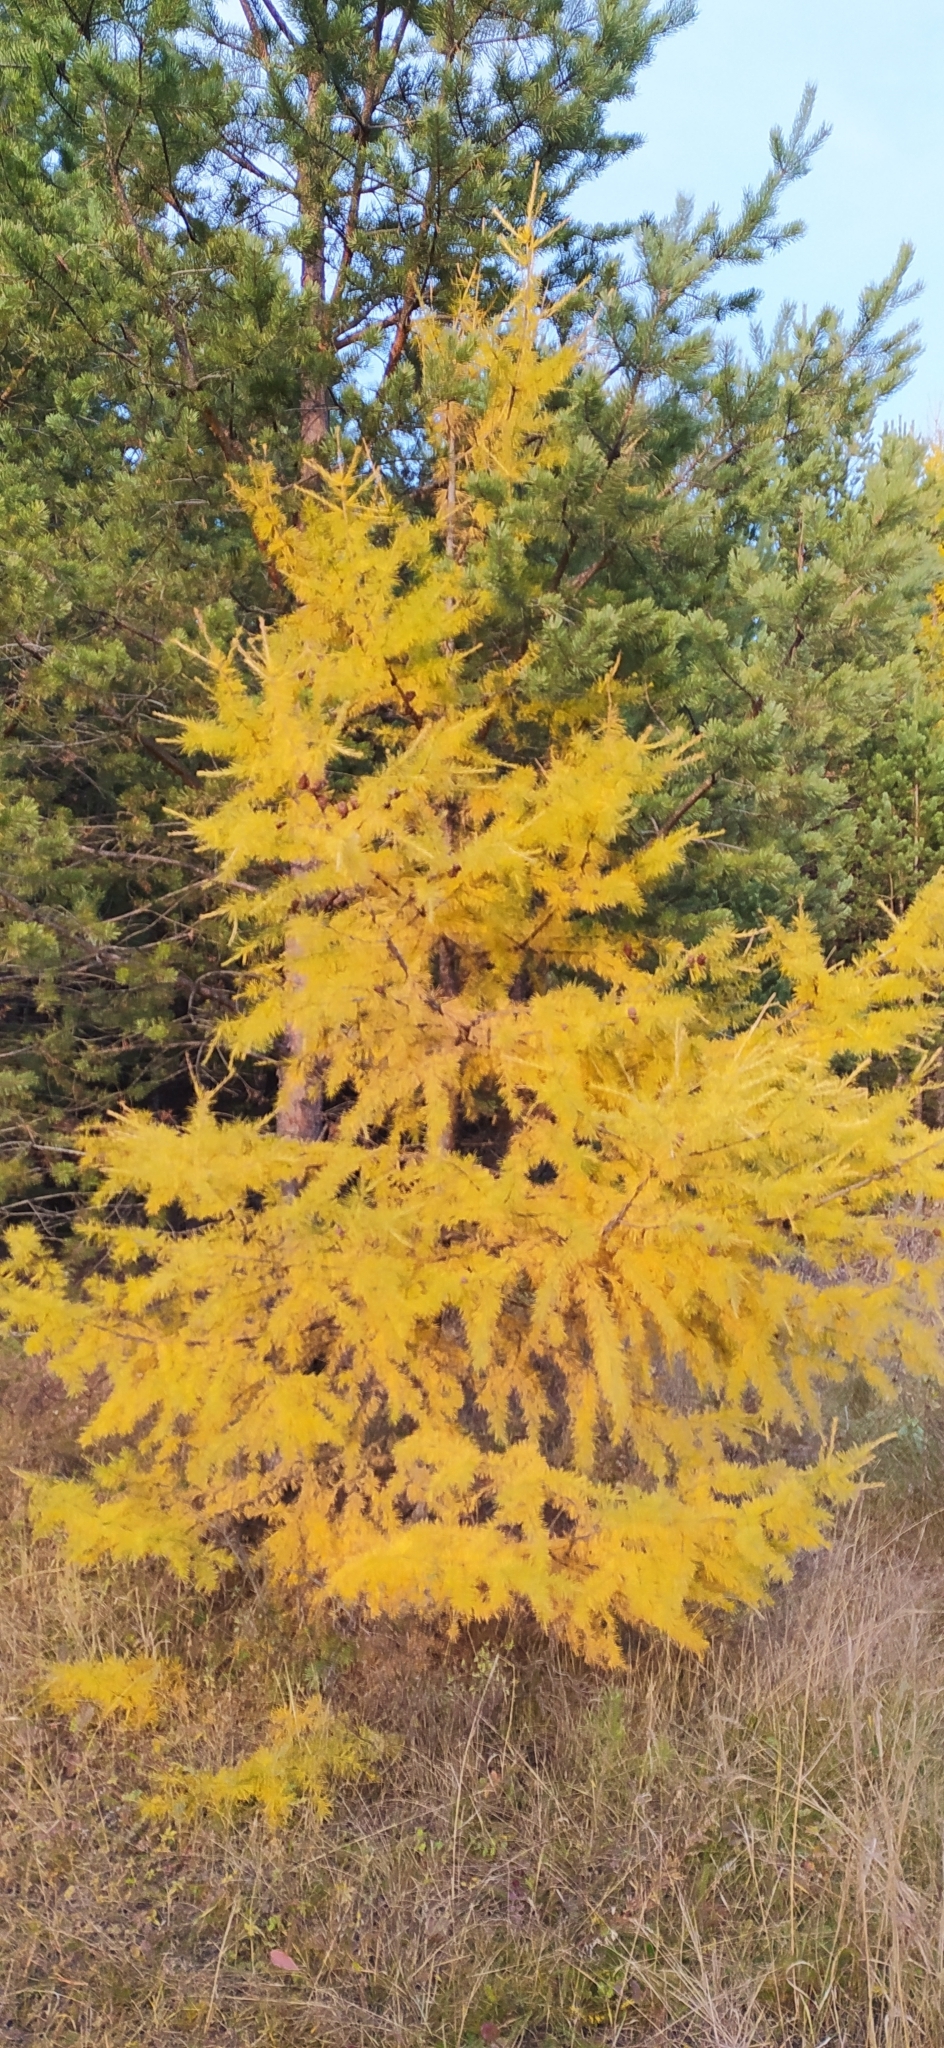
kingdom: Plantae
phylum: Tracheophyta
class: Pinopsida
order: Pinales
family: Pinaceae
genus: Larix
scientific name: Larix sibirica
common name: Siberian larch
